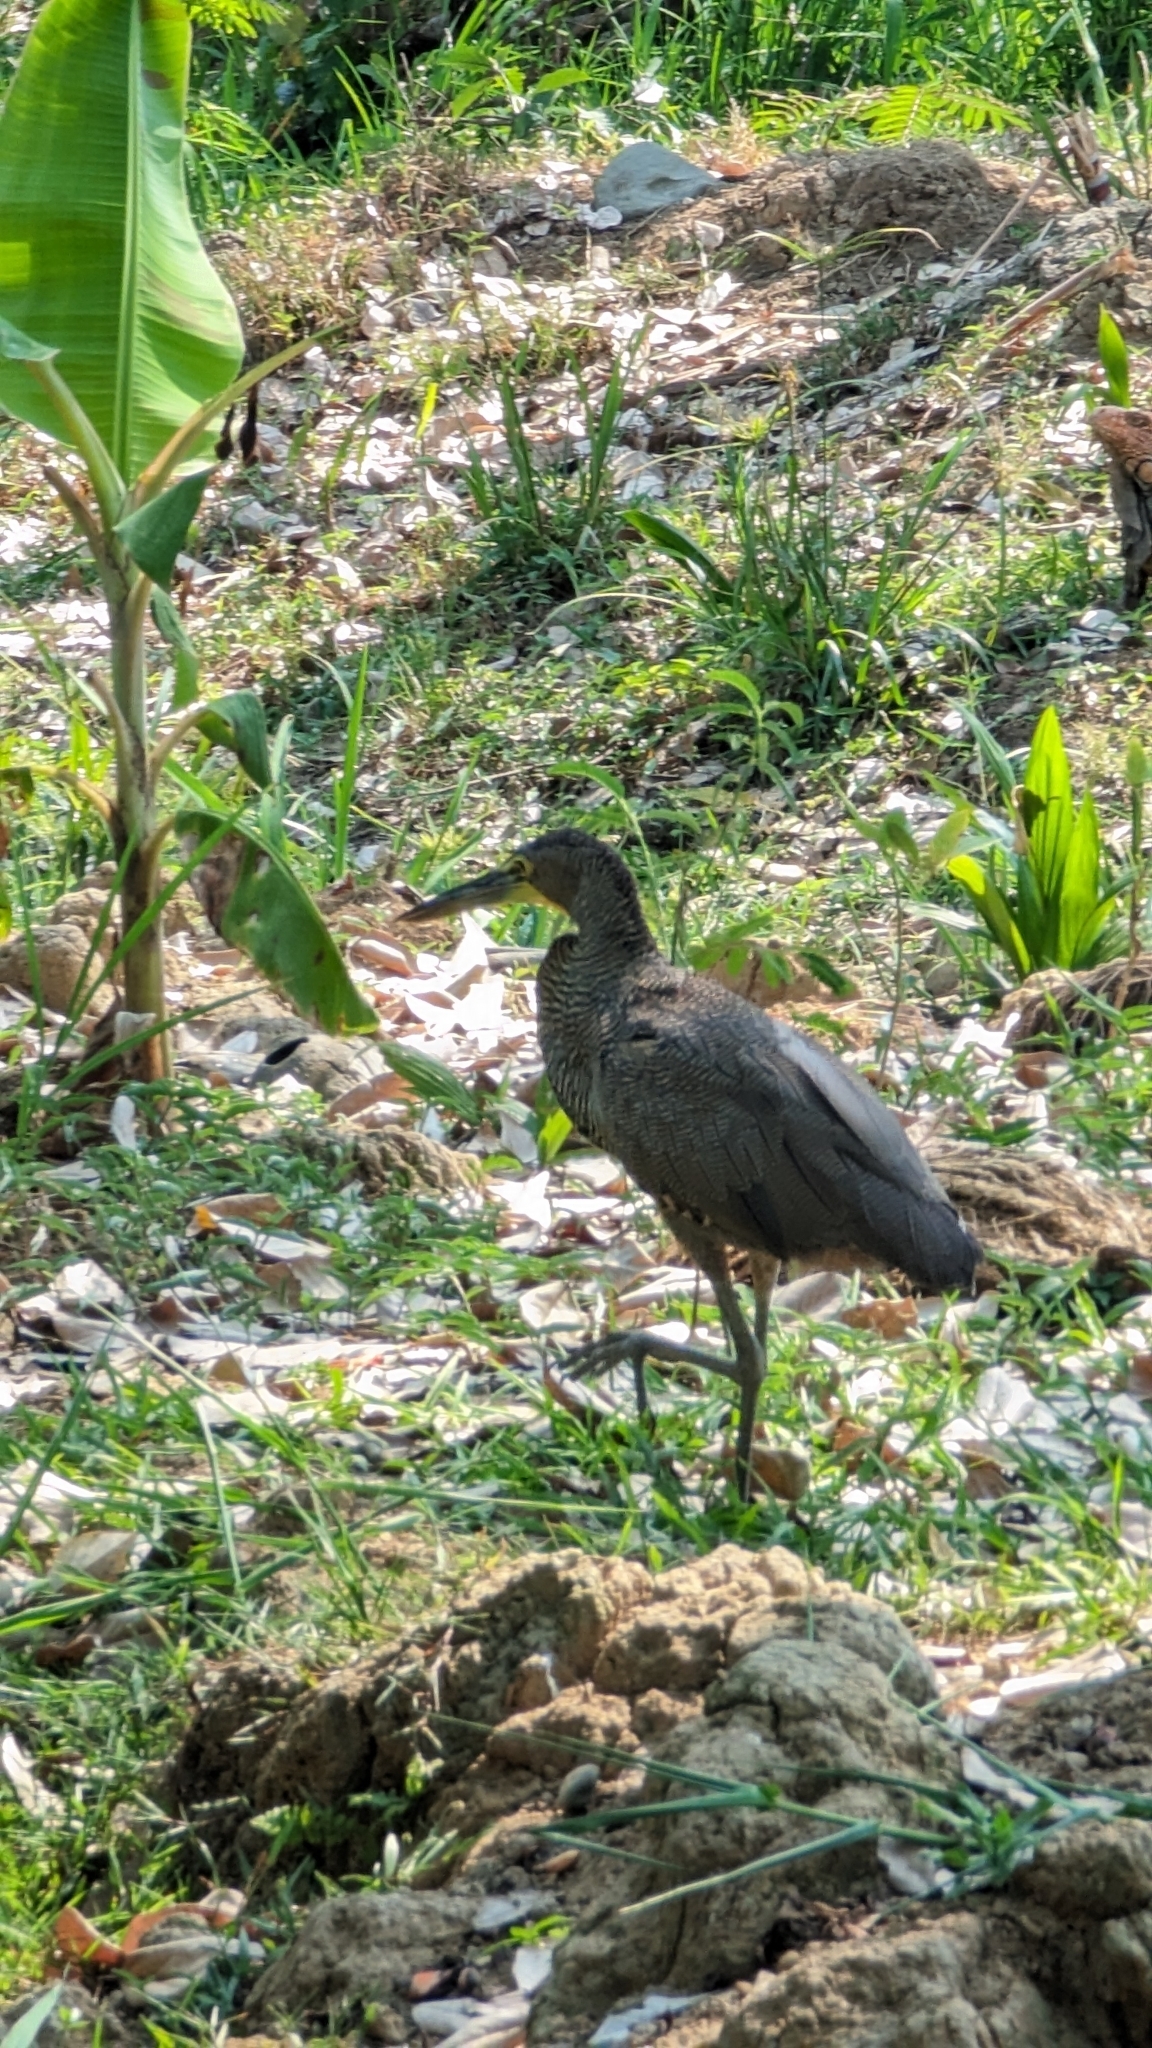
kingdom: Animalia
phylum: Chordata
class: Aves
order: Pelecaniformes
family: Ardeidae
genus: Tigrisoma
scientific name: Tigrisoma mexicanum
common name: Bare-throated tiger-heron
